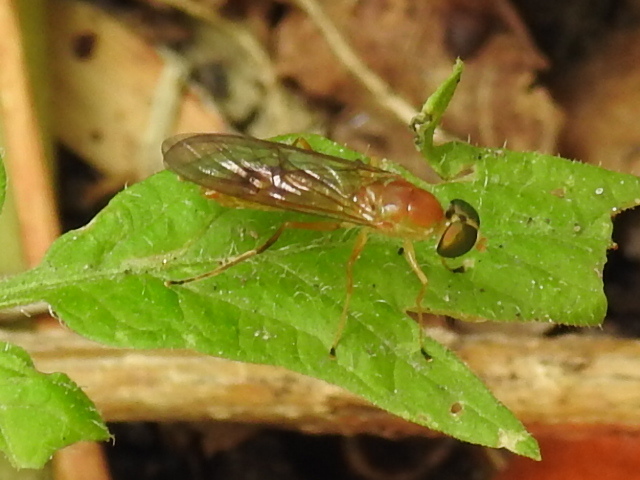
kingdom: Animalia
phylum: Arthropoda
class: Insecta
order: Diptera
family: Stratiomyidae
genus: Ptecticus
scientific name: Ptecticus trivittatus
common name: Compost fly
